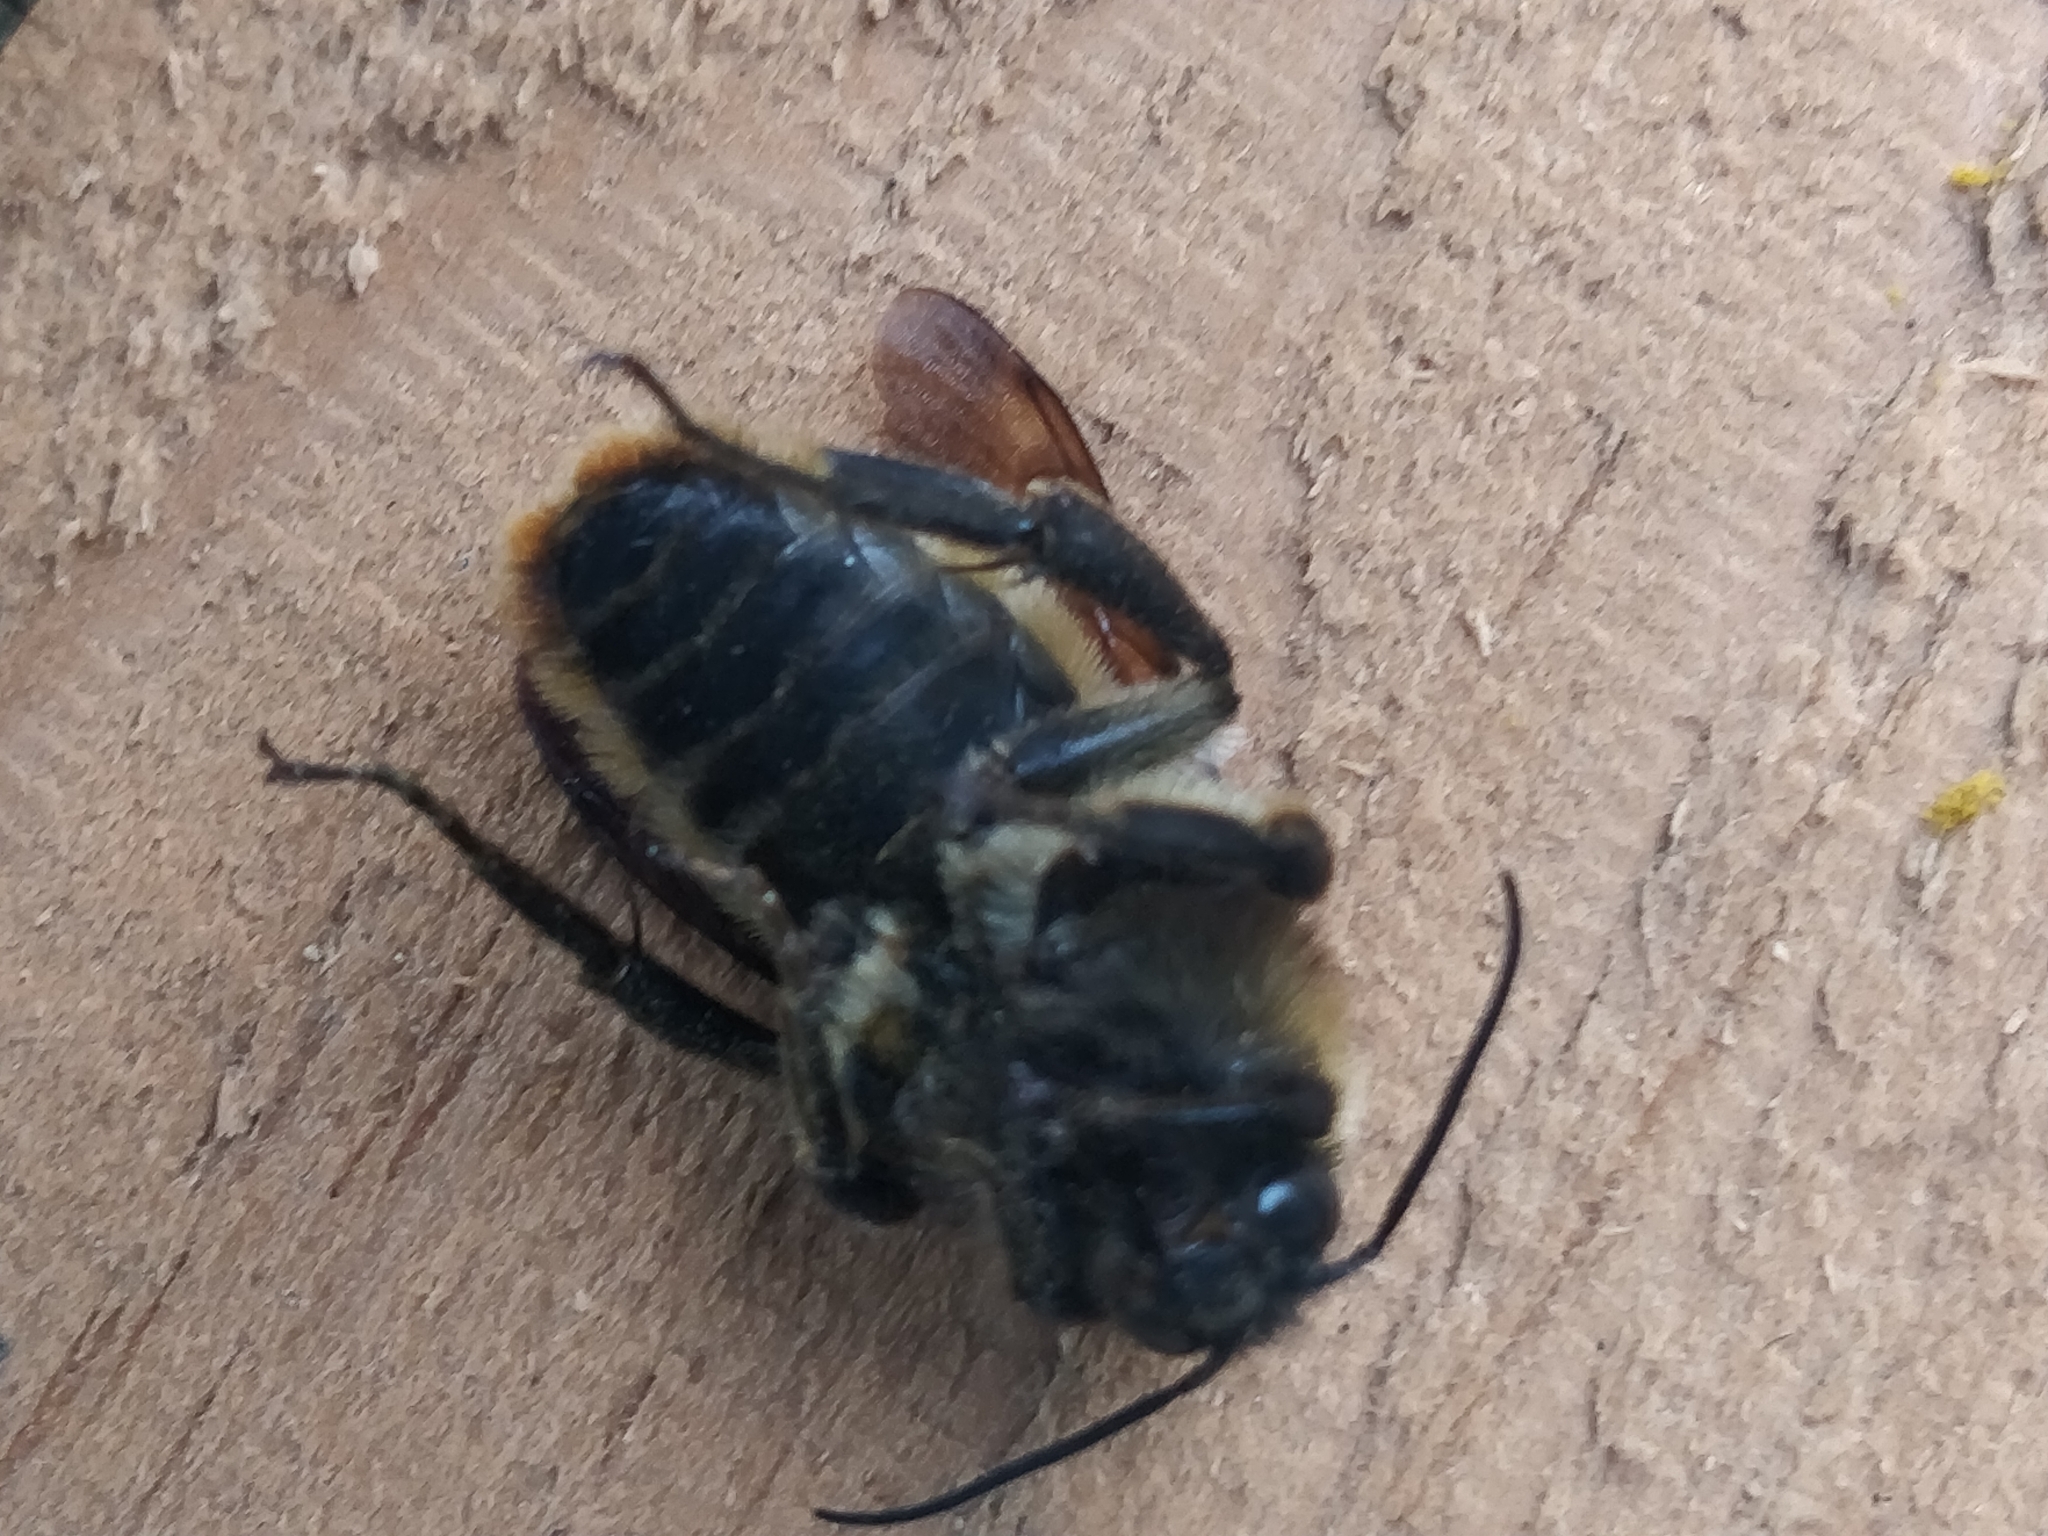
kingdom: Animalia
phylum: Arthropoda
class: Insecta
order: Hymenoptera
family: Apidae
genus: Bombus
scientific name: Bombus pensylvanicus
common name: Bumble bee
